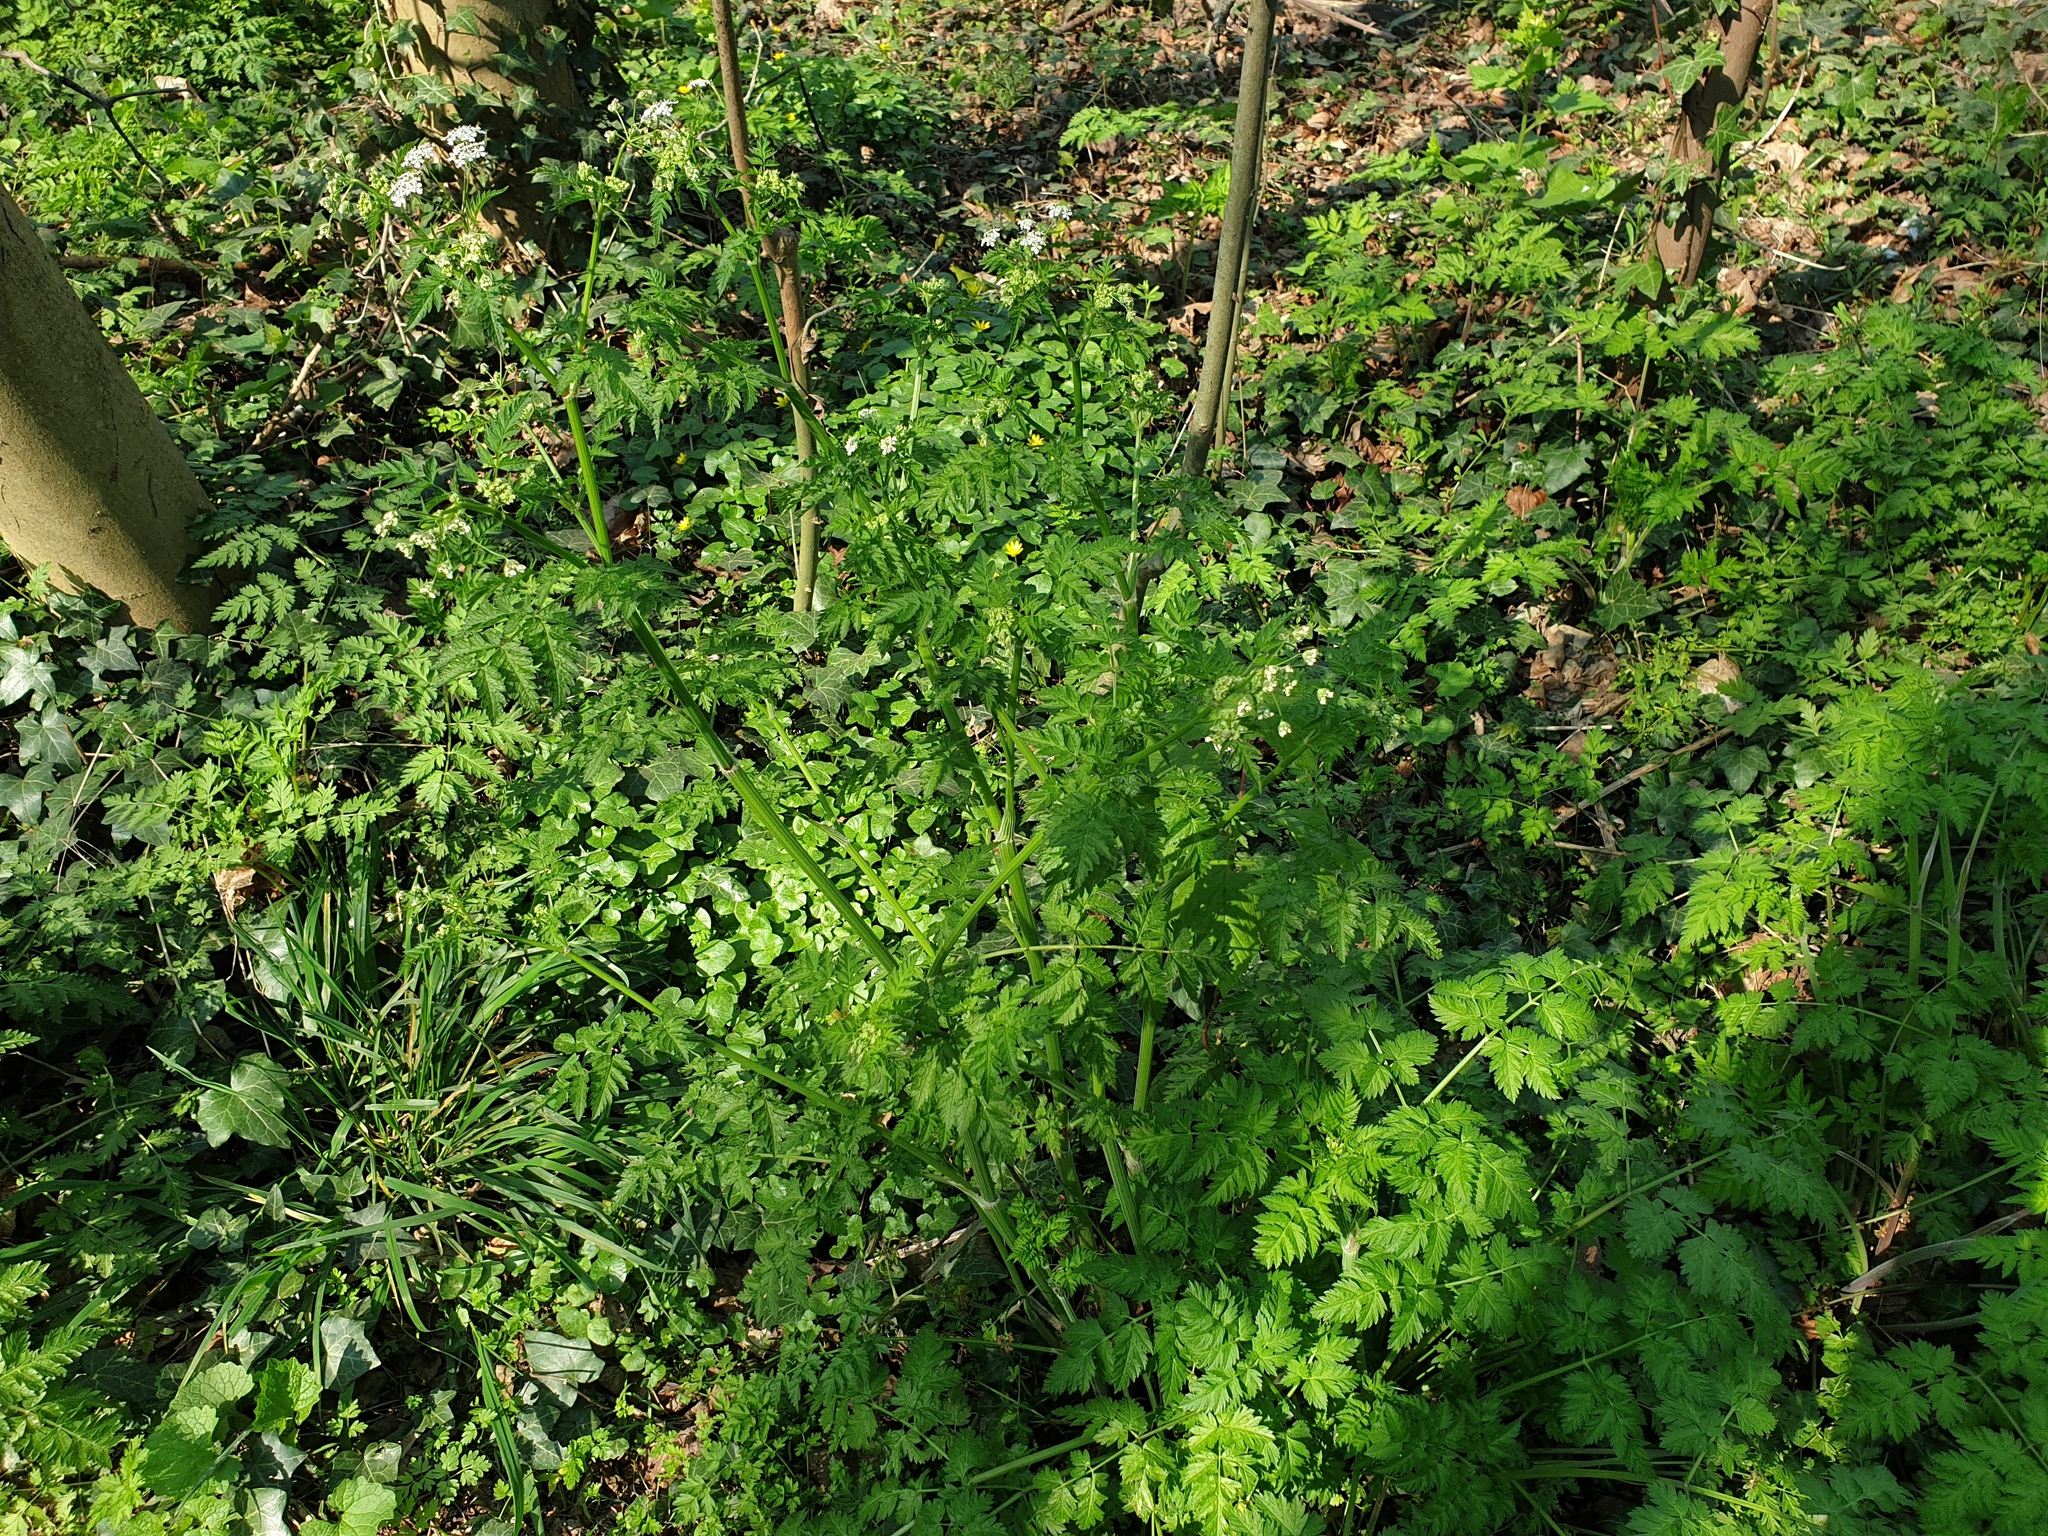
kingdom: Plantae
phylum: Tracheophyta
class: Magnoliopsida
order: Apiales
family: Apiaceae
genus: Anthriscus
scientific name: Anthriscus sylvestris
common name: Cow parsley
